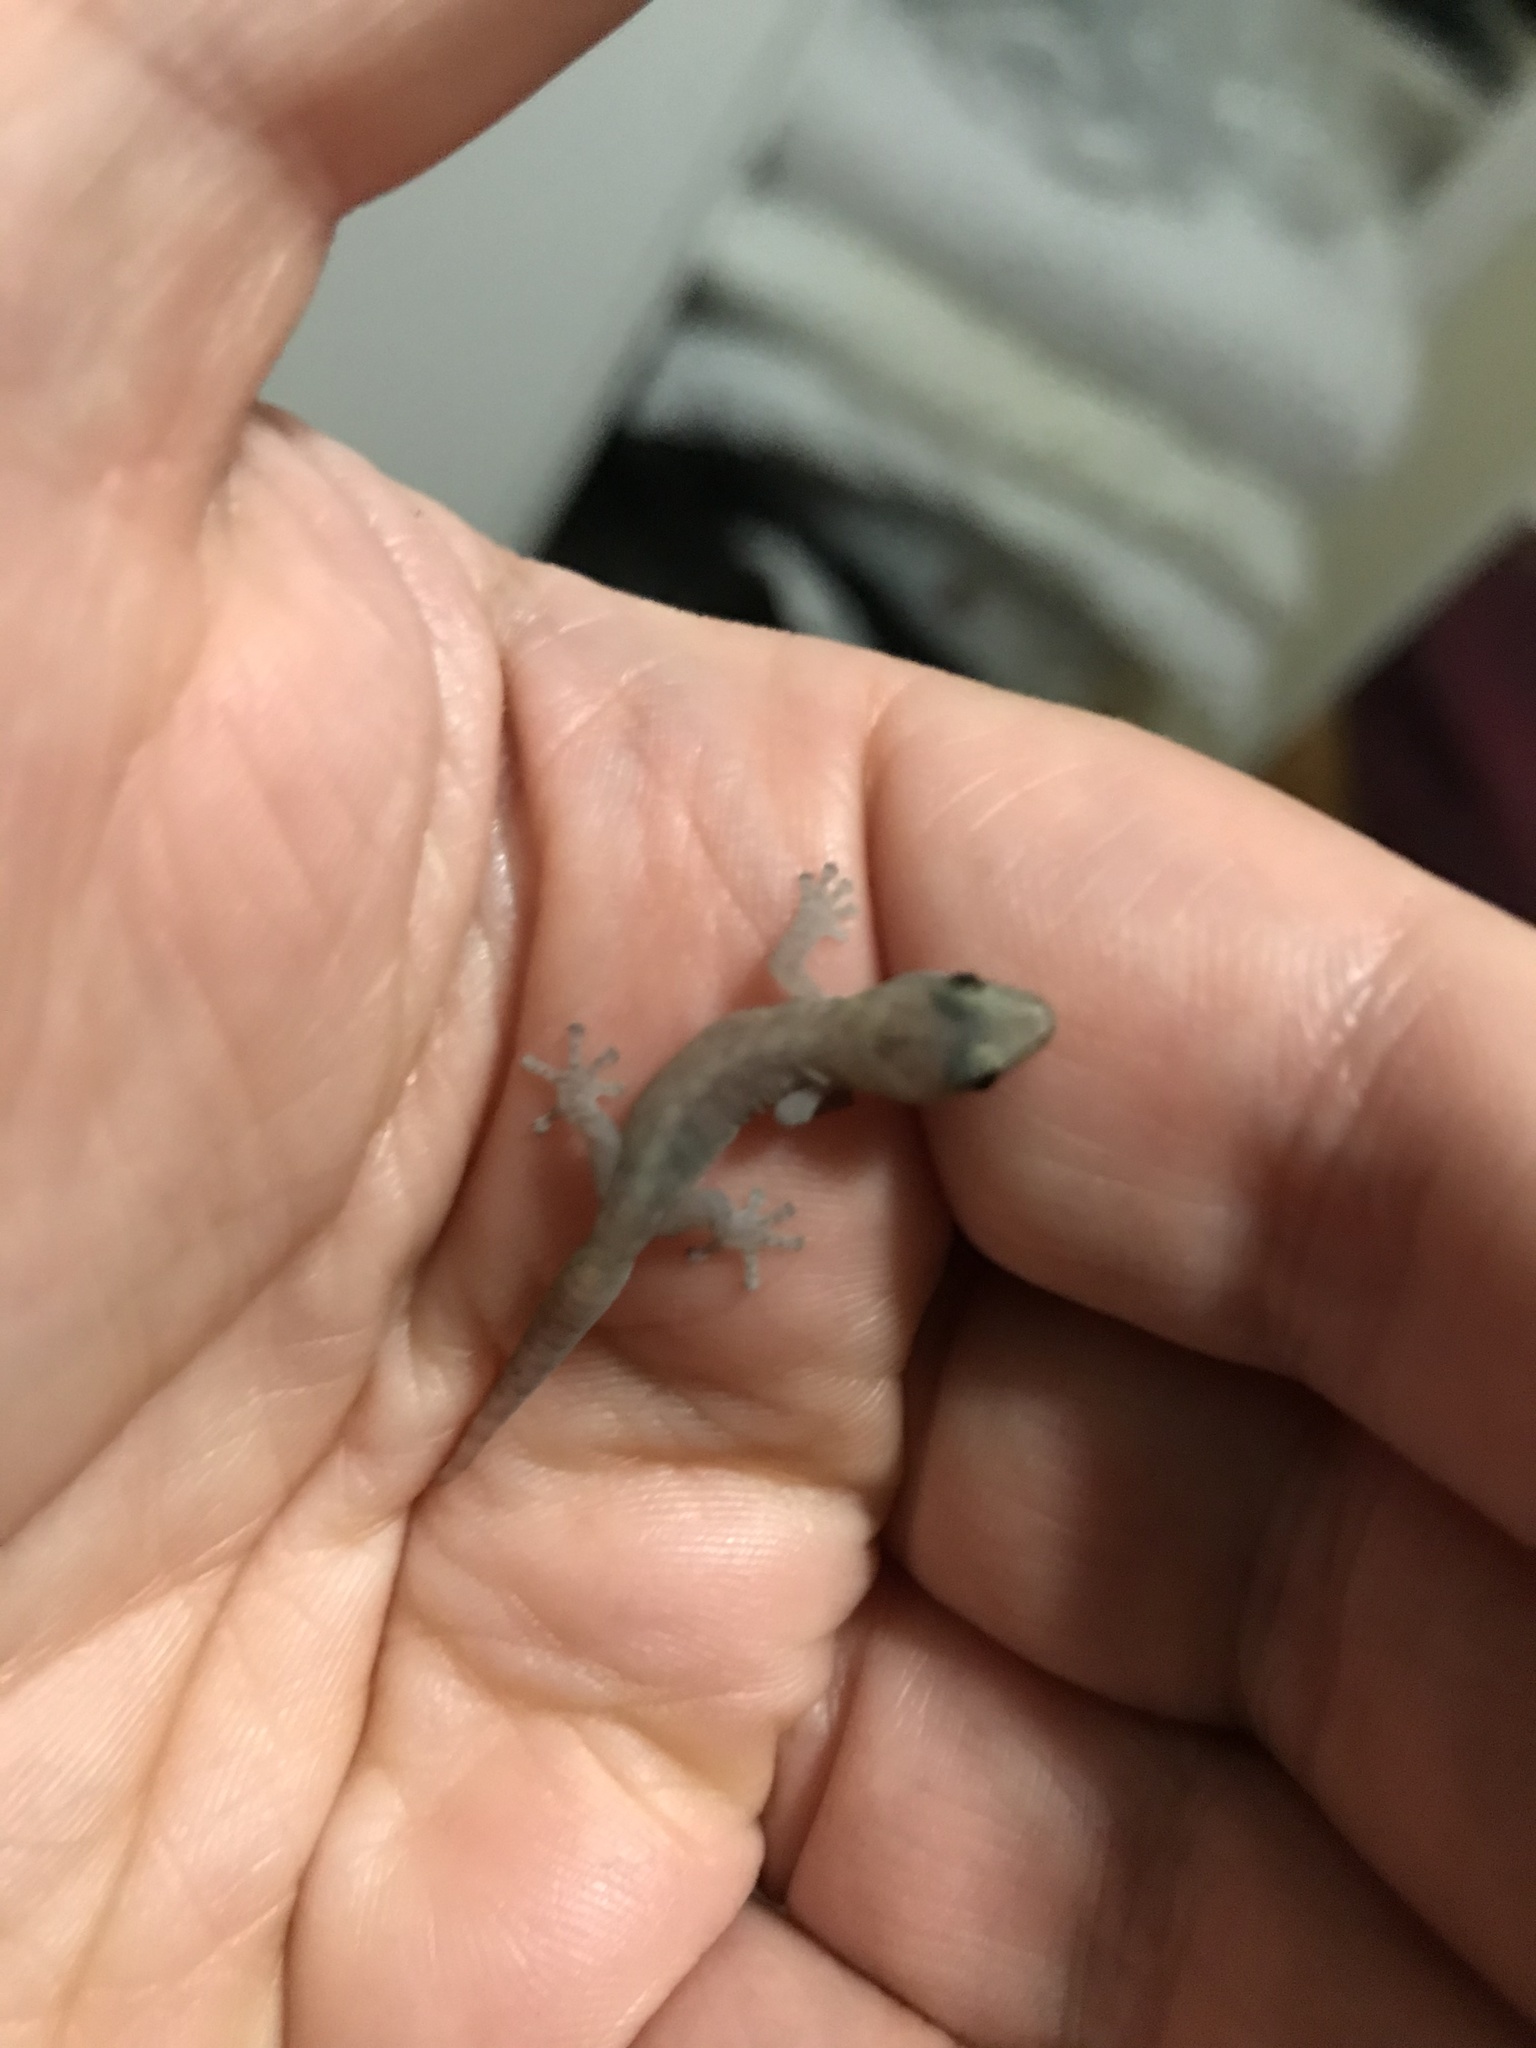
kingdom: Animalia
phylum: Chordata
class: Squamata
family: Gekkonidae
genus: Afrogecko
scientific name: Afrogecko porphyreus
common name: Marbled leaf-toed gecko
